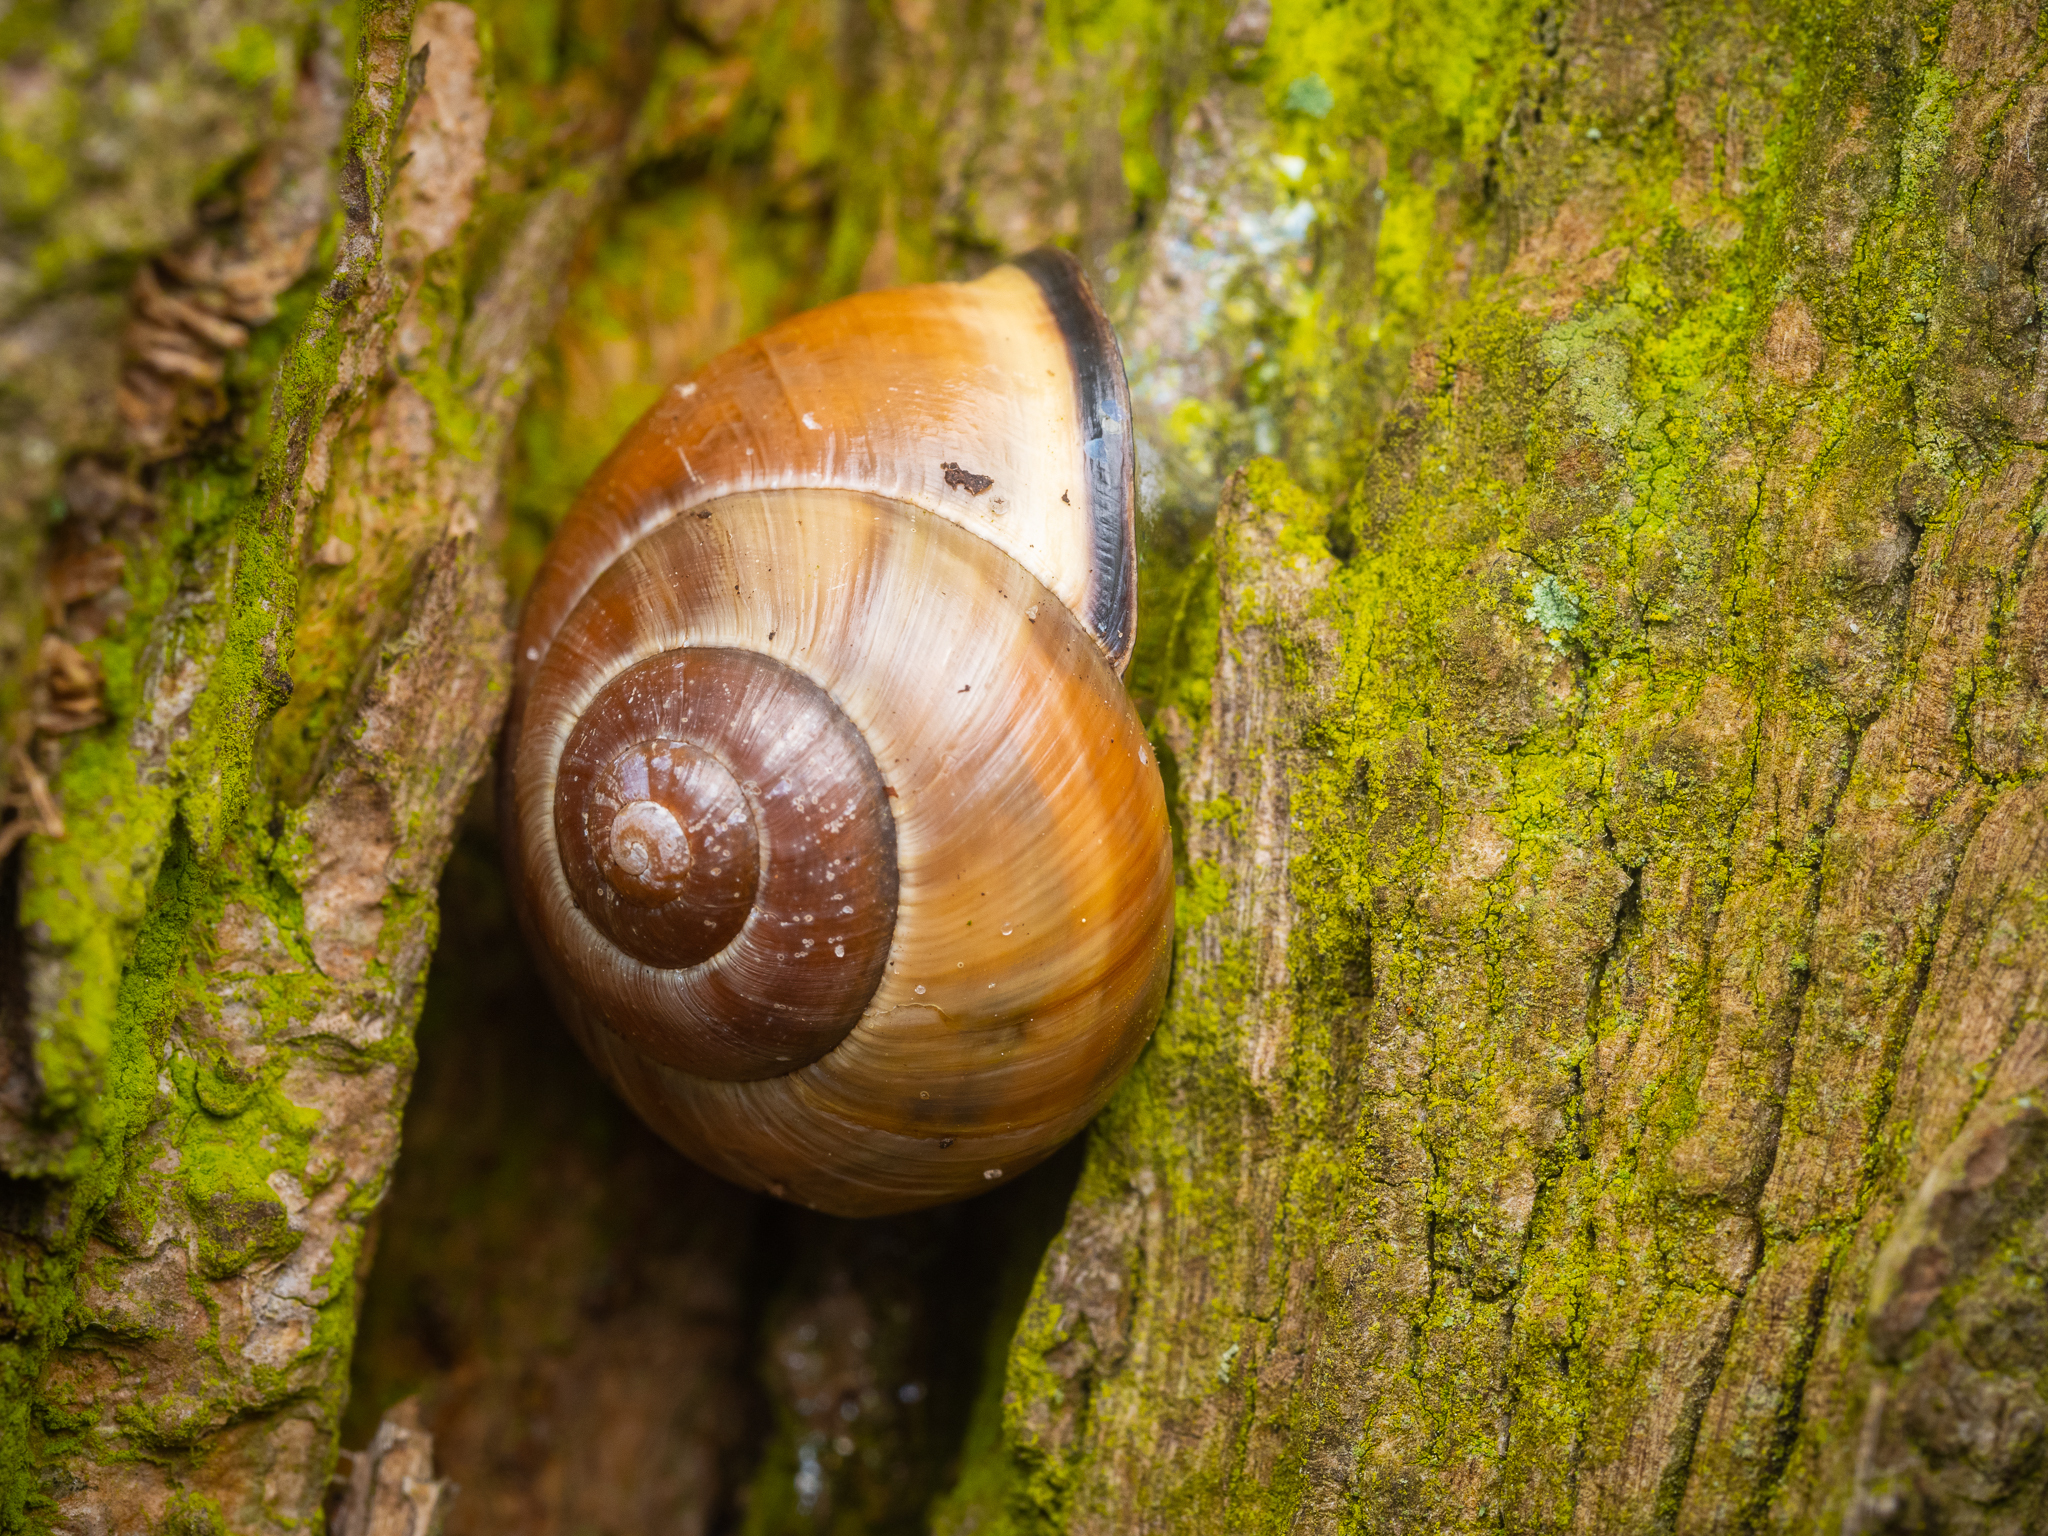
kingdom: Animalia
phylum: Mollusca
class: Gastropoda
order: Stylommatophora
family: Helicidae
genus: Cepaea
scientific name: Cepaea nemoralis
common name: Grovesnail
